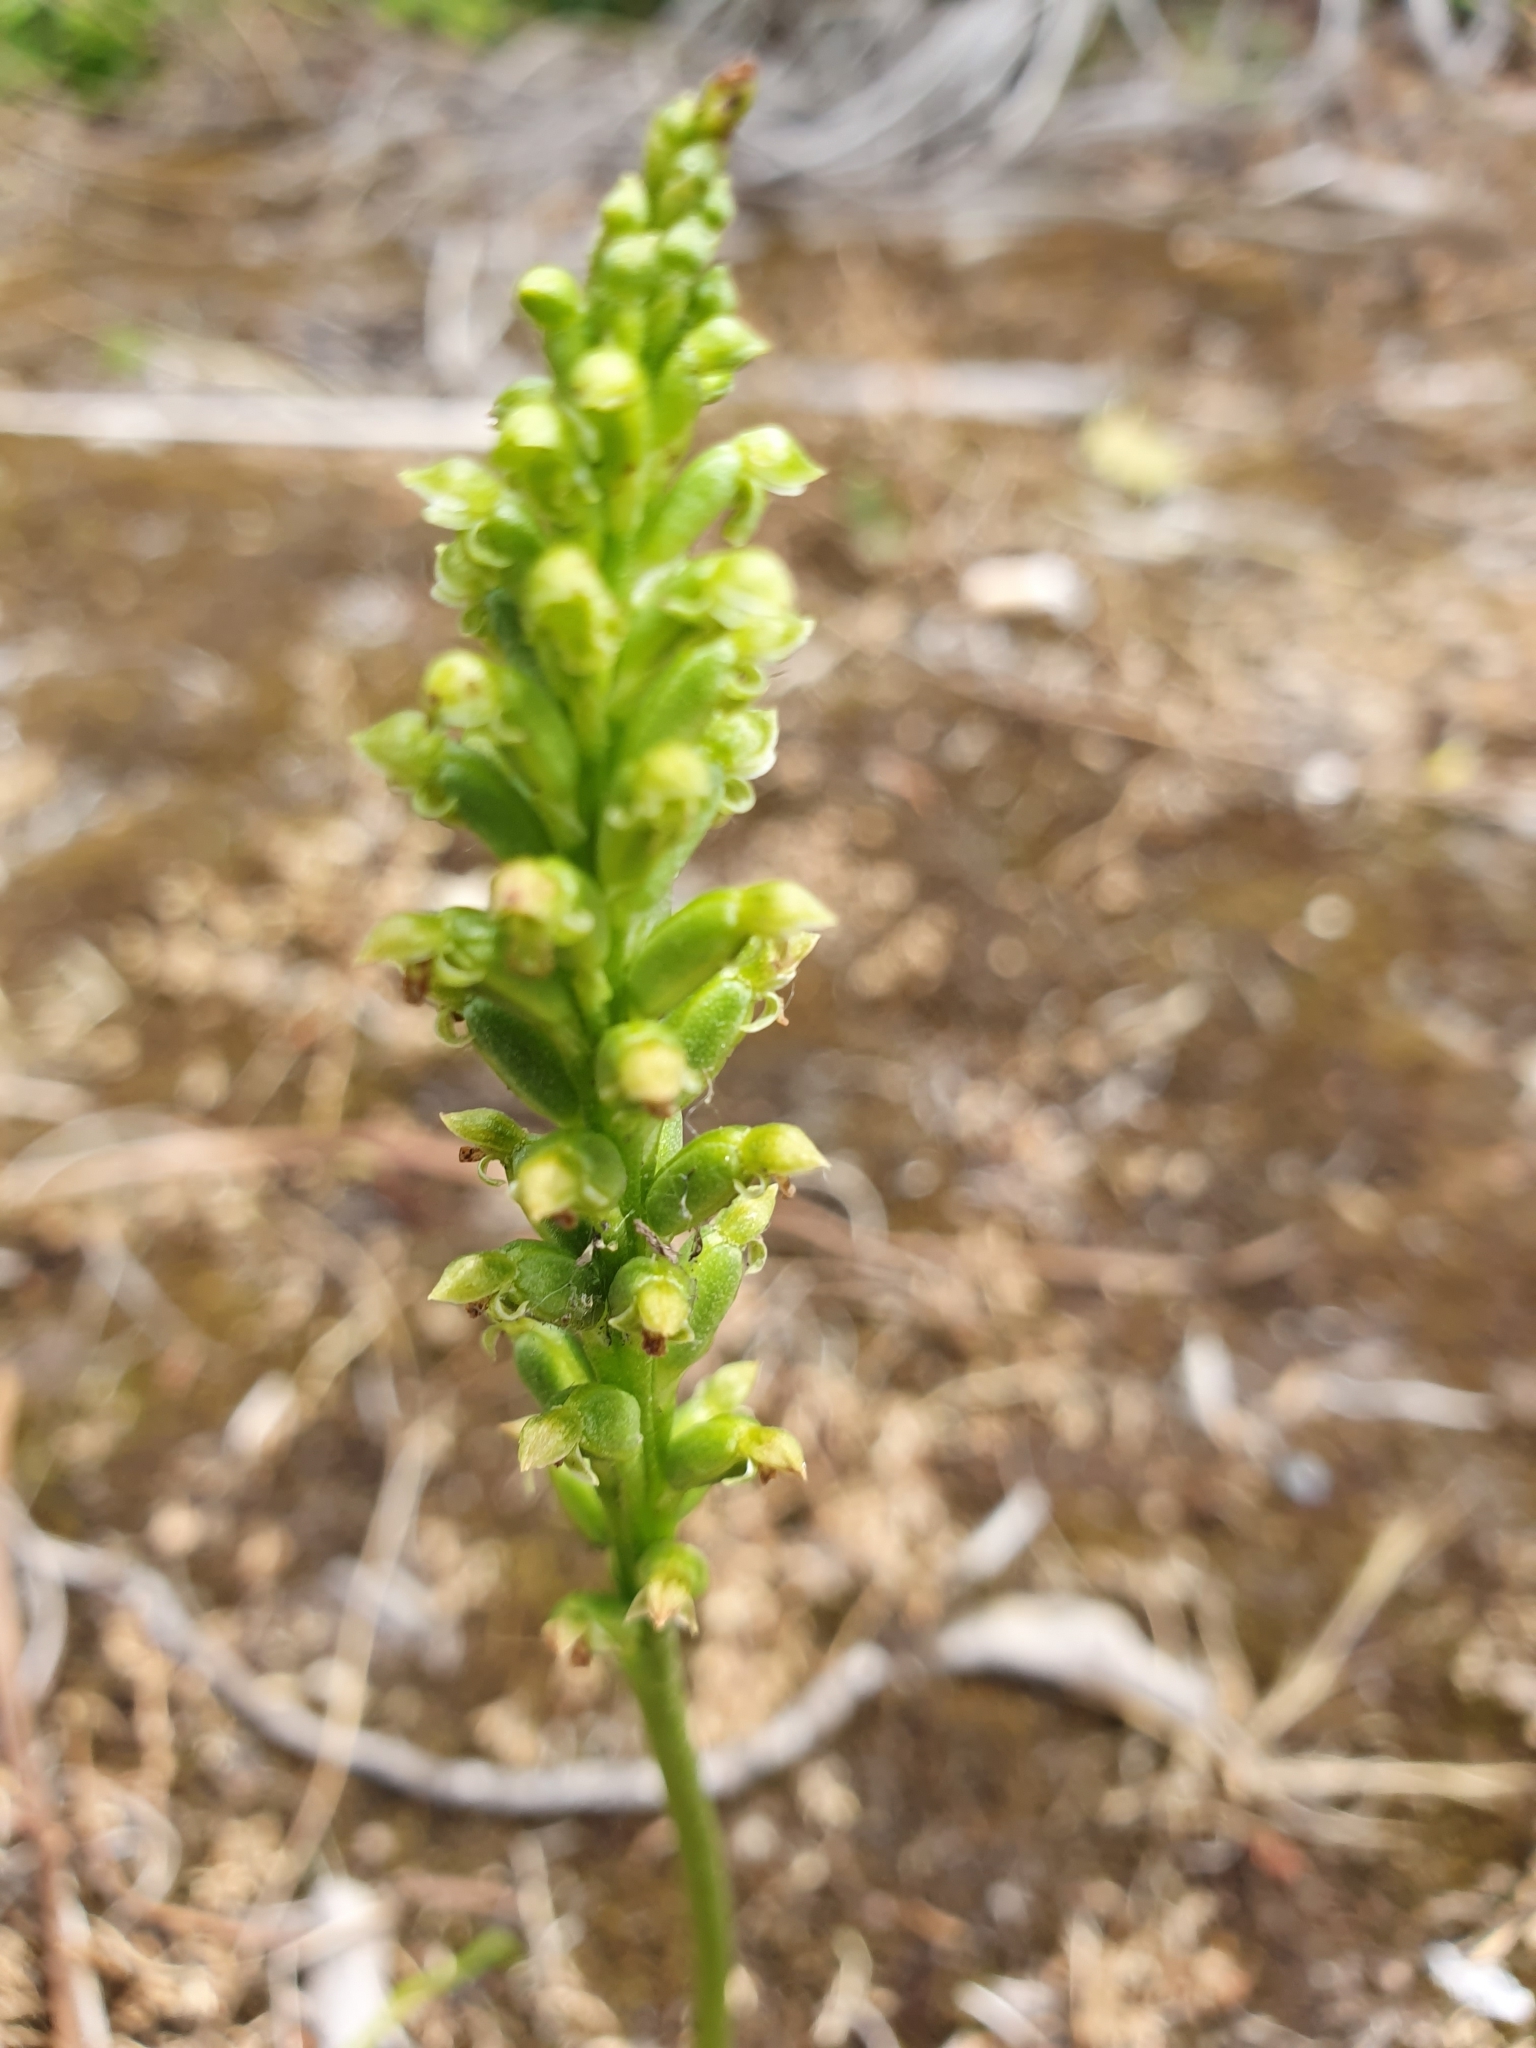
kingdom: Plantae
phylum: Tracheophyta
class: Liliopsida
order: Asparagales
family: Orchidaceae
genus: Microtis
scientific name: Microtis unifolia
